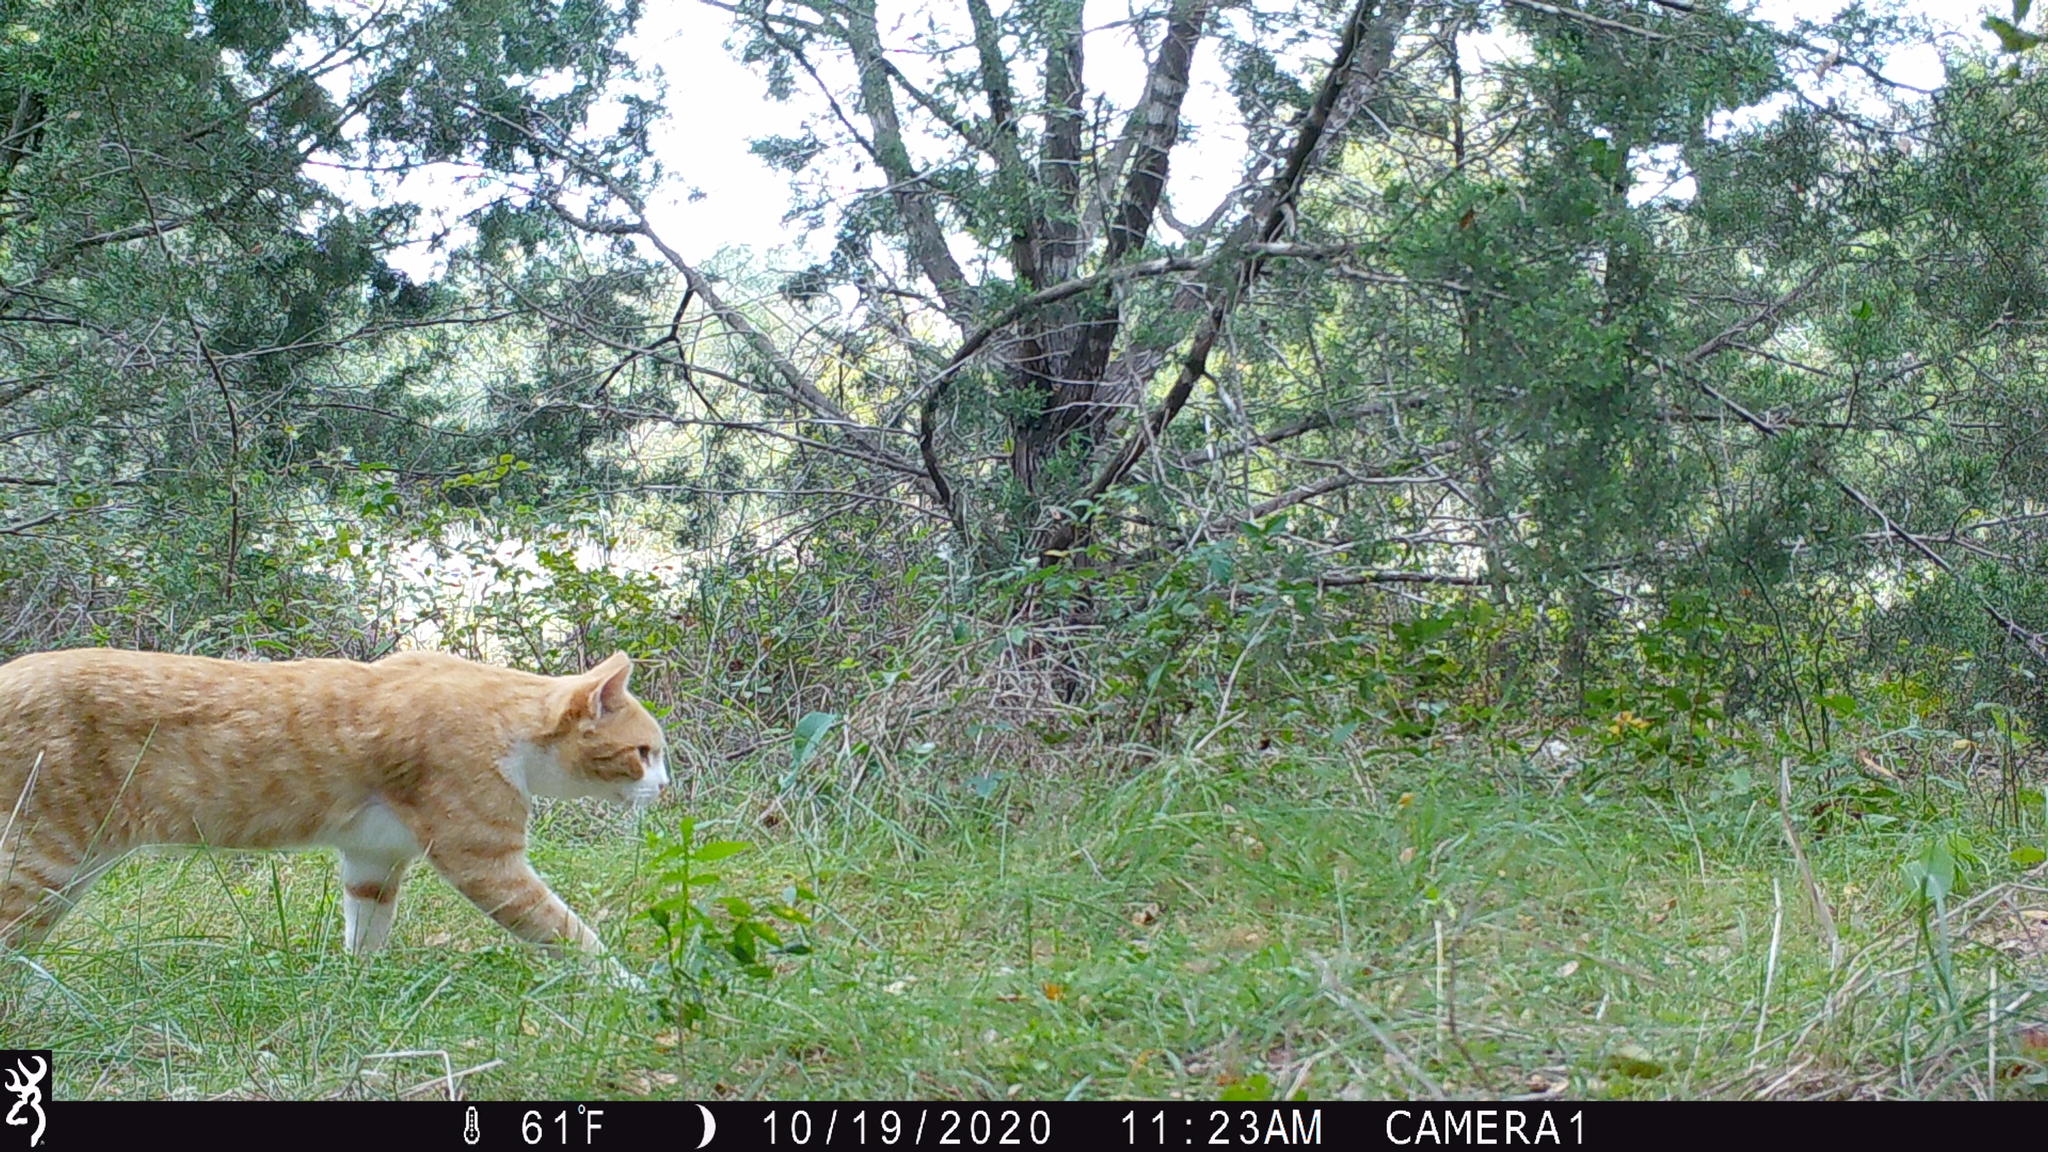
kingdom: Animalia
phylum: Chordata
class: Mammalia
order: Carnivora
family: Felidae
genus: Felis
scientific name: Felis catus
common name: Domestic cat
